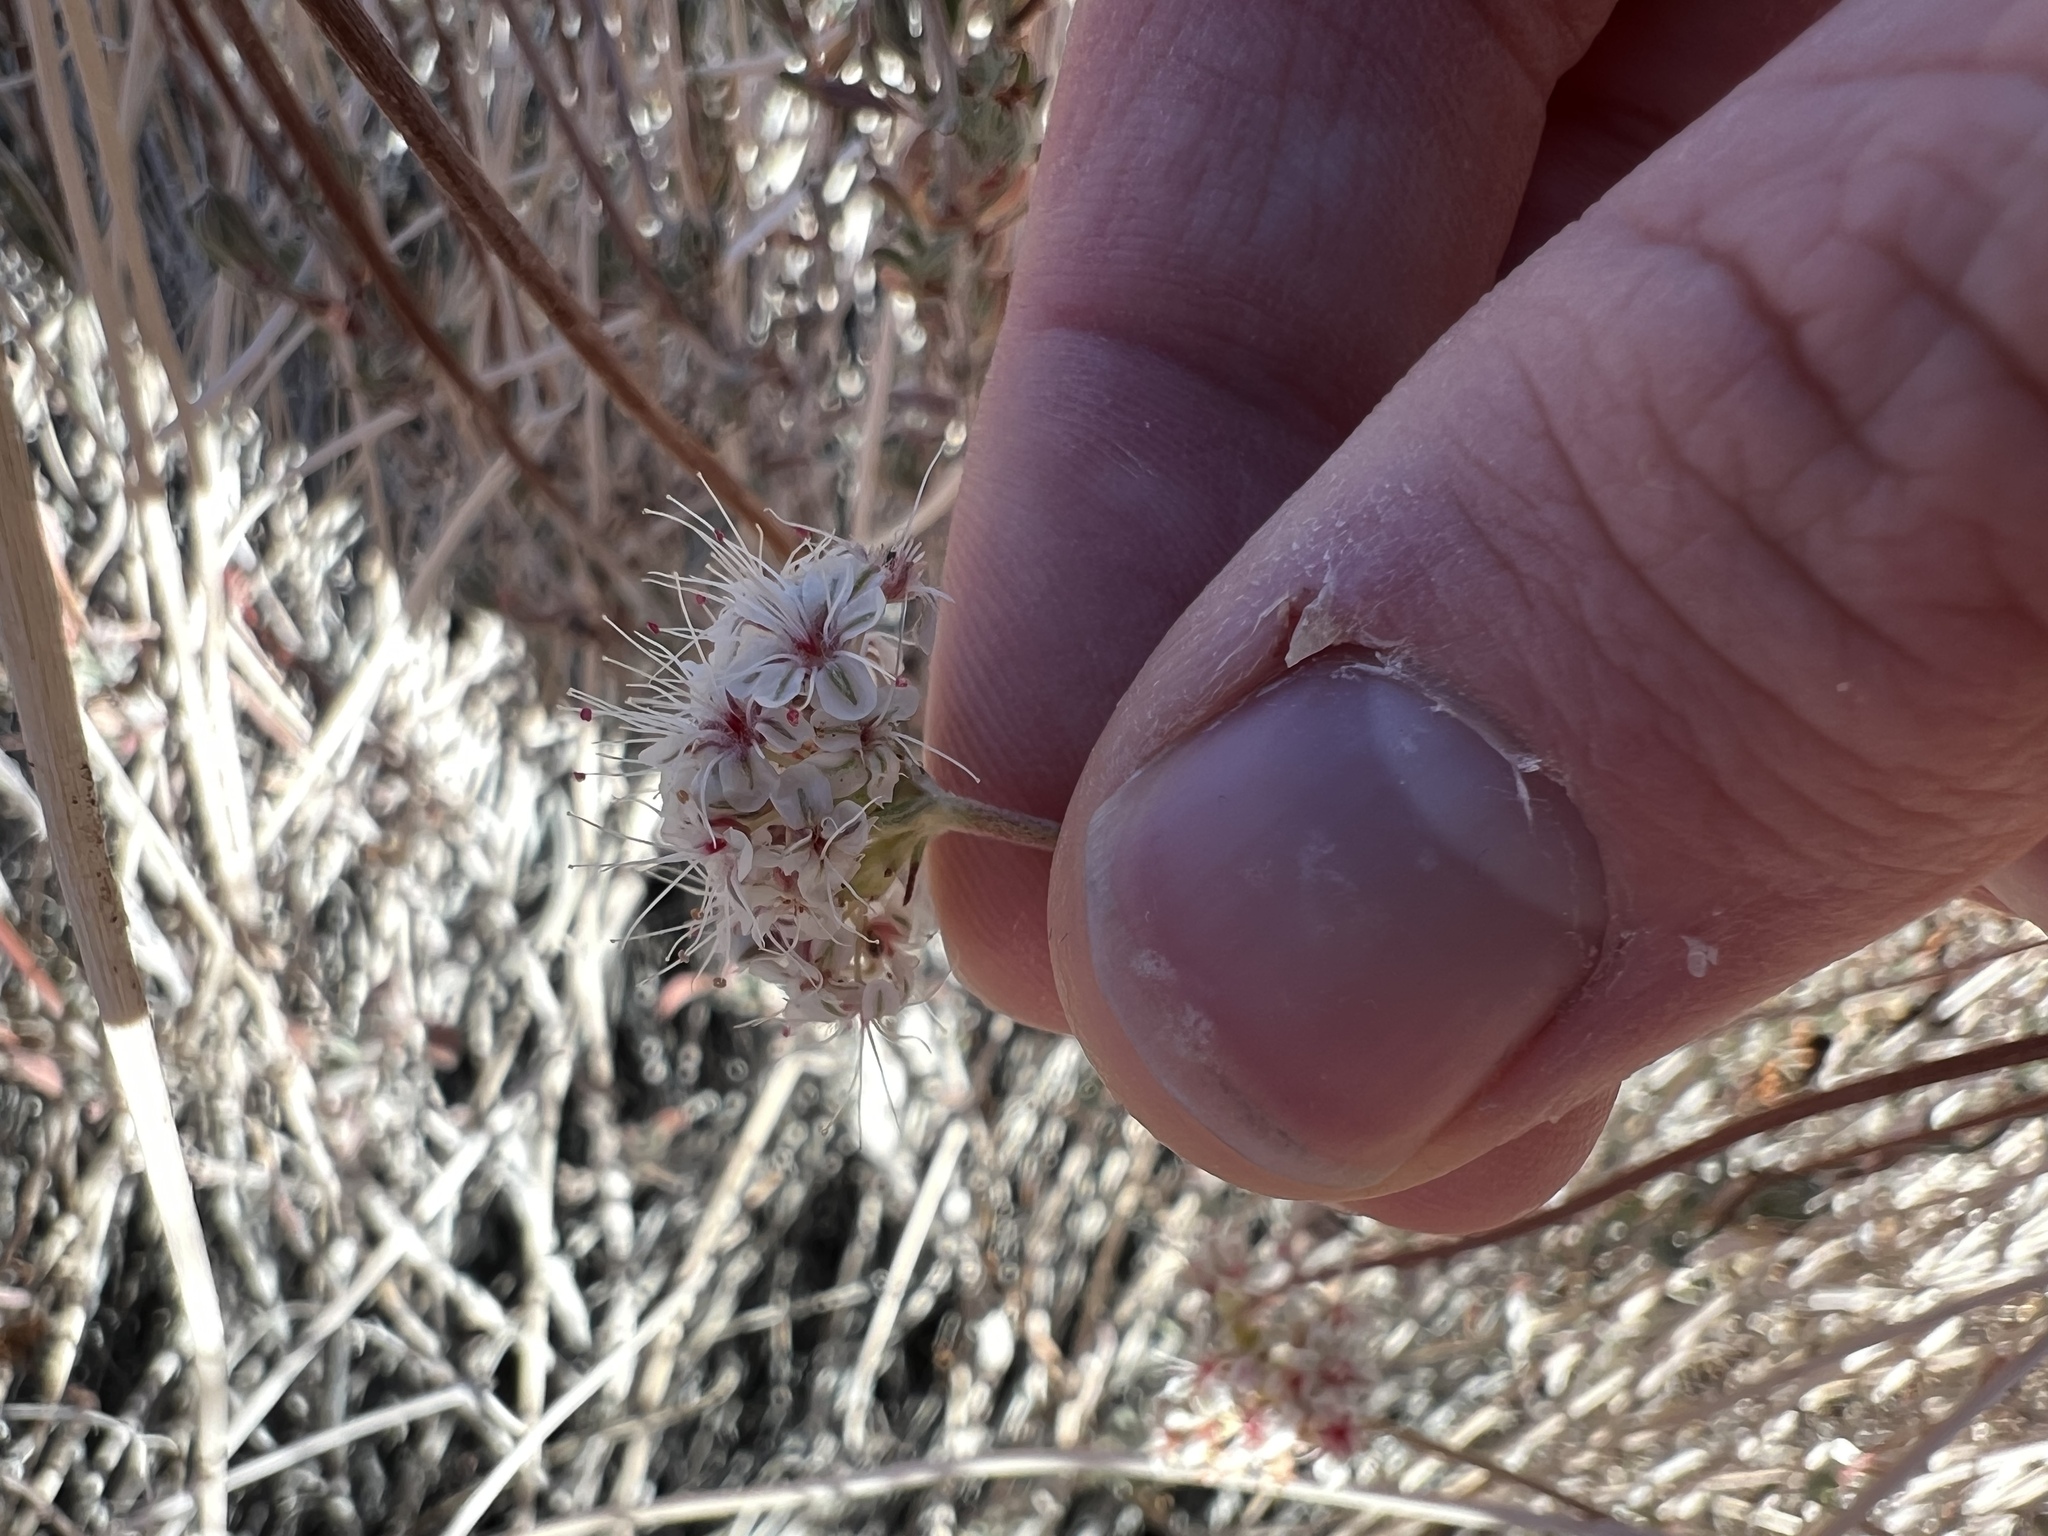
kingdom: Plantae
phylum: Tracheophyta
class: Magnoliopsida
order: Caryophyllales
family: Polygonaceae
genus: Eriogonum
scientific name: Eriogonum fasciculatum
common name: California wild buckwheat
